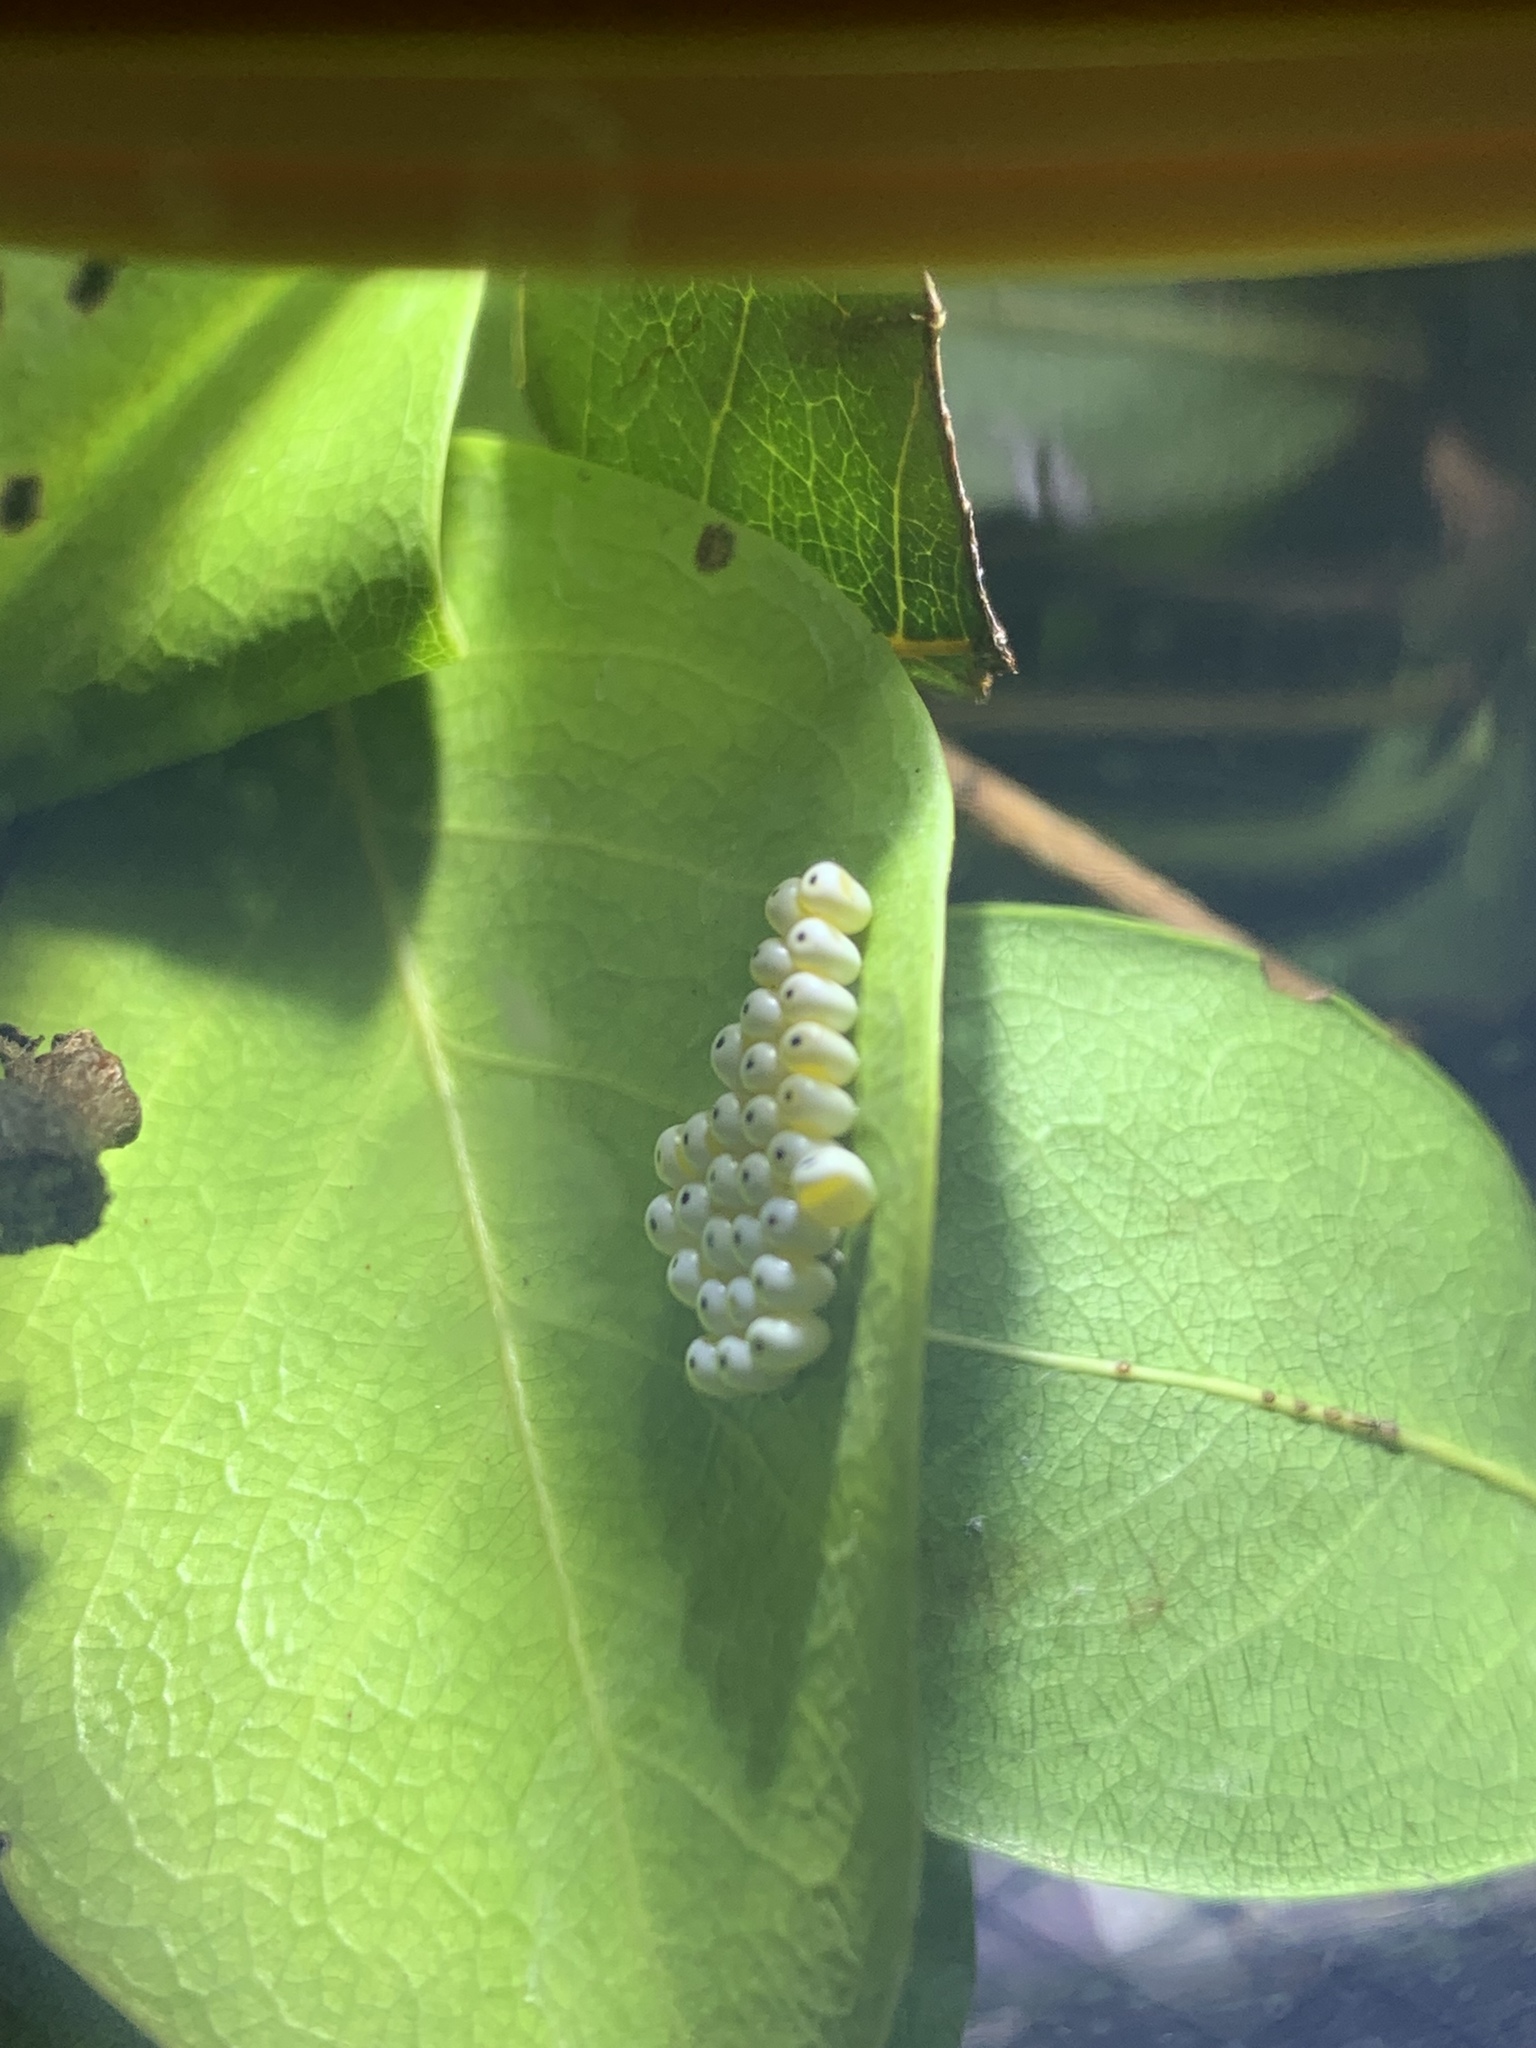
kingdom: Animalia
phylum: Arthropoda
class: Insecta
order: Lepidoptera
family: Saturniidae
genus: Automeris
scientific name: Automeris io
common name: Io moth
